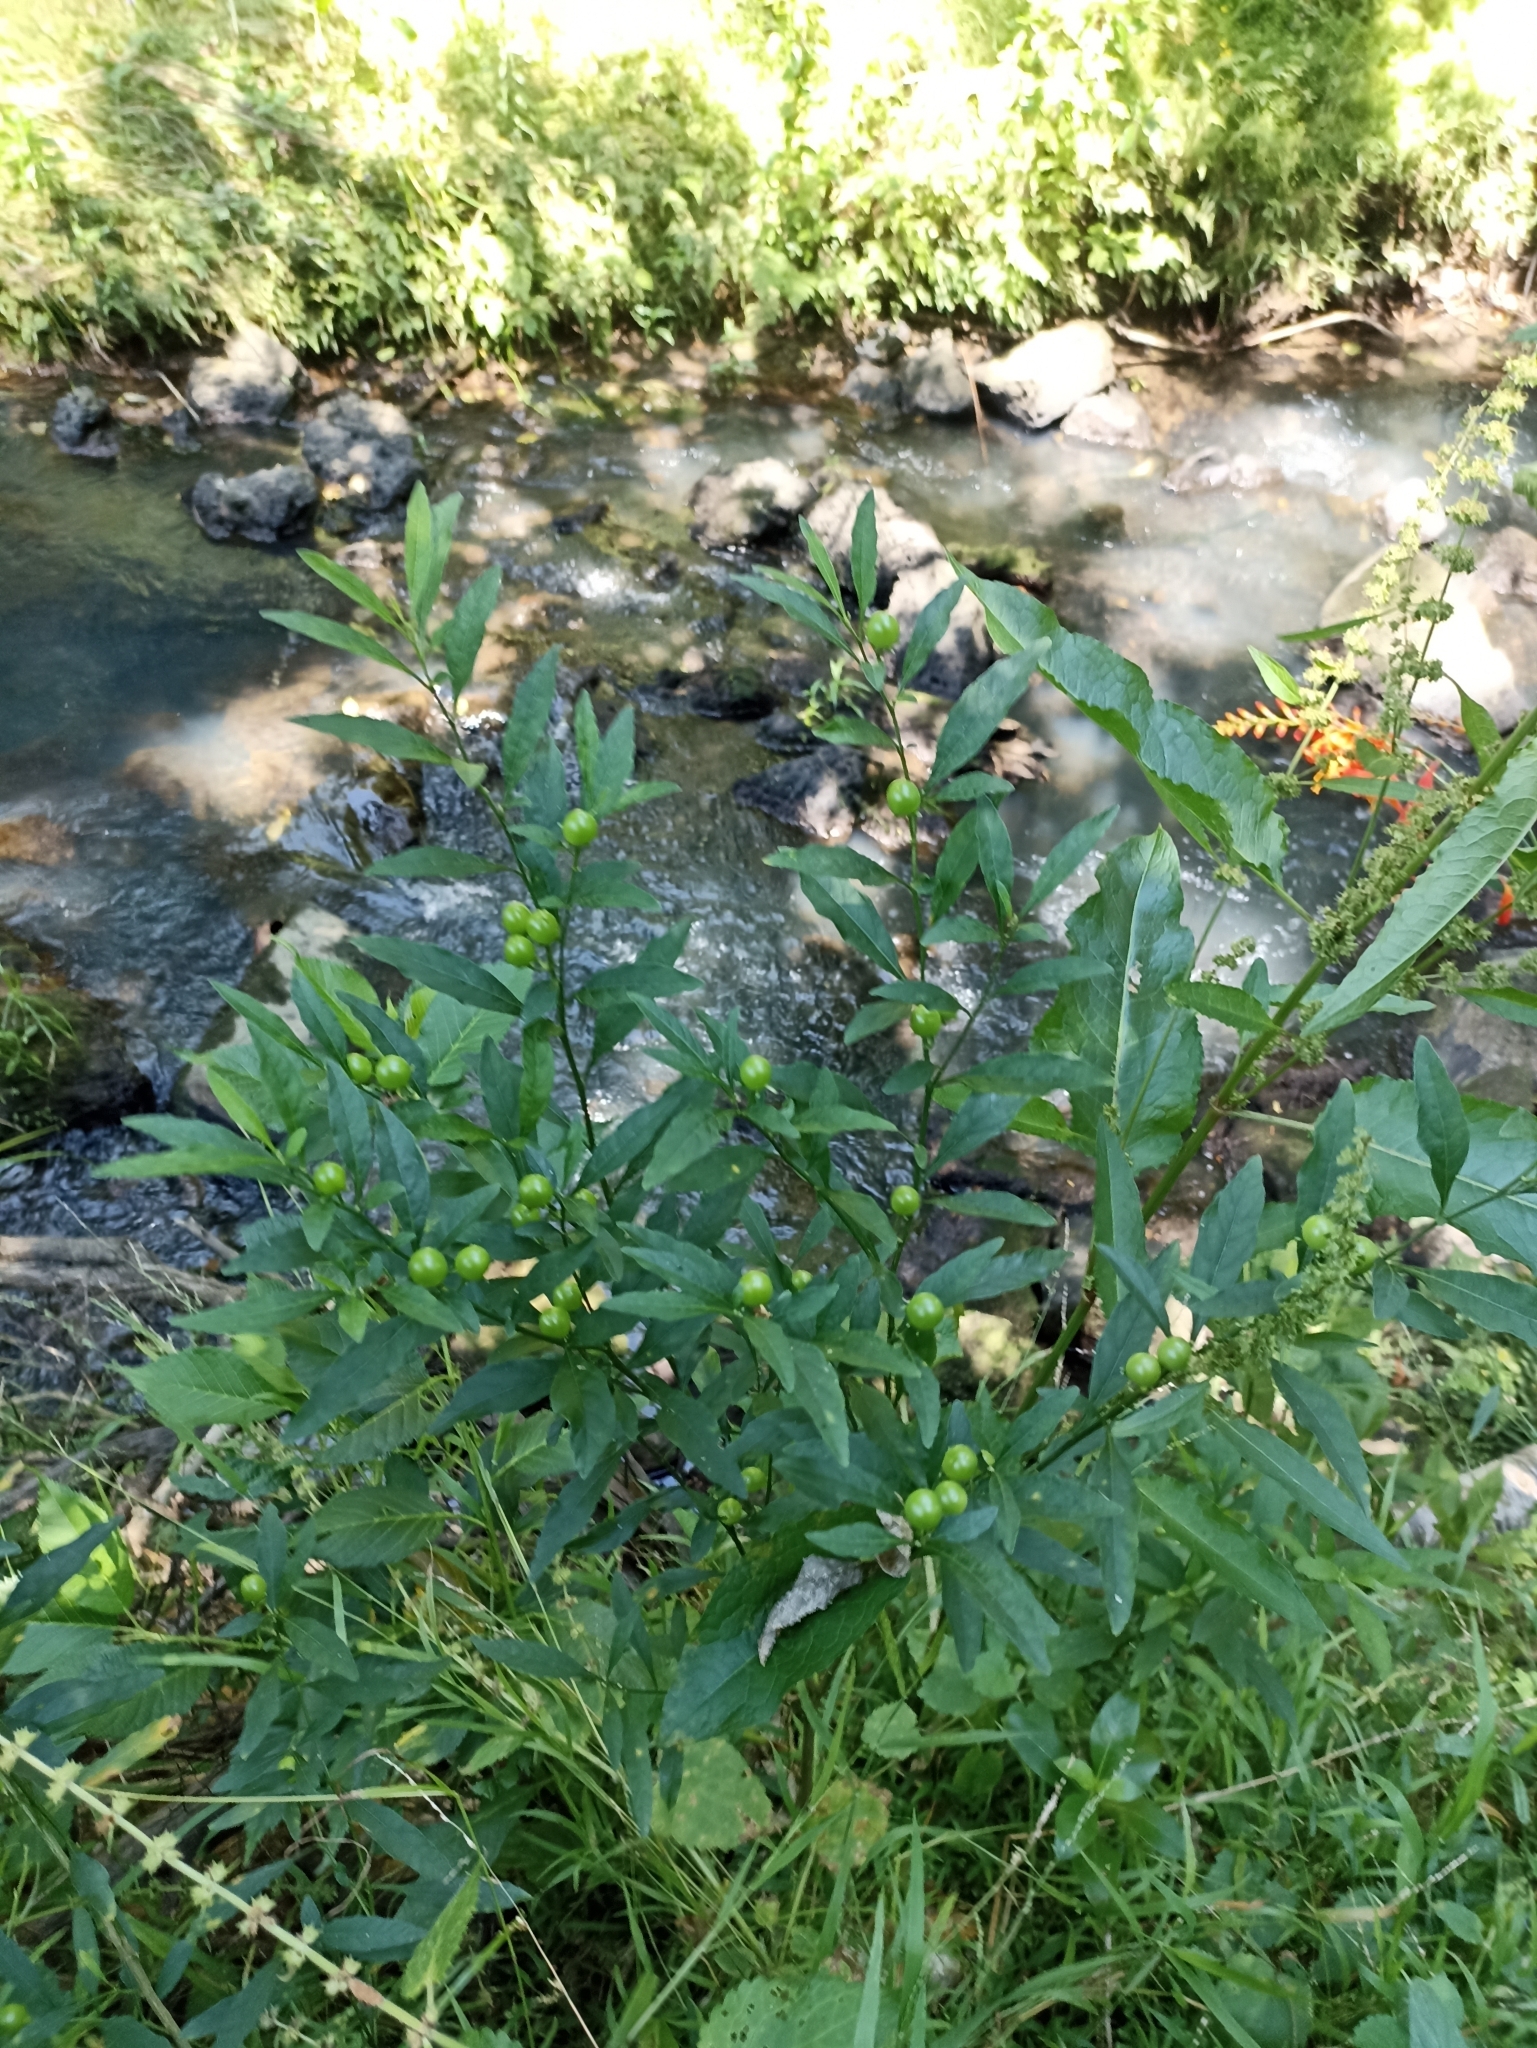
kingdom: Plantae
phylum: Tracheophyta
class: Magnoliopsida
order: Solanales
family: Solanaceae
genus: Solanum
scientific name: Solanum pseudocapsicum
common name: Jerusalem cherry
